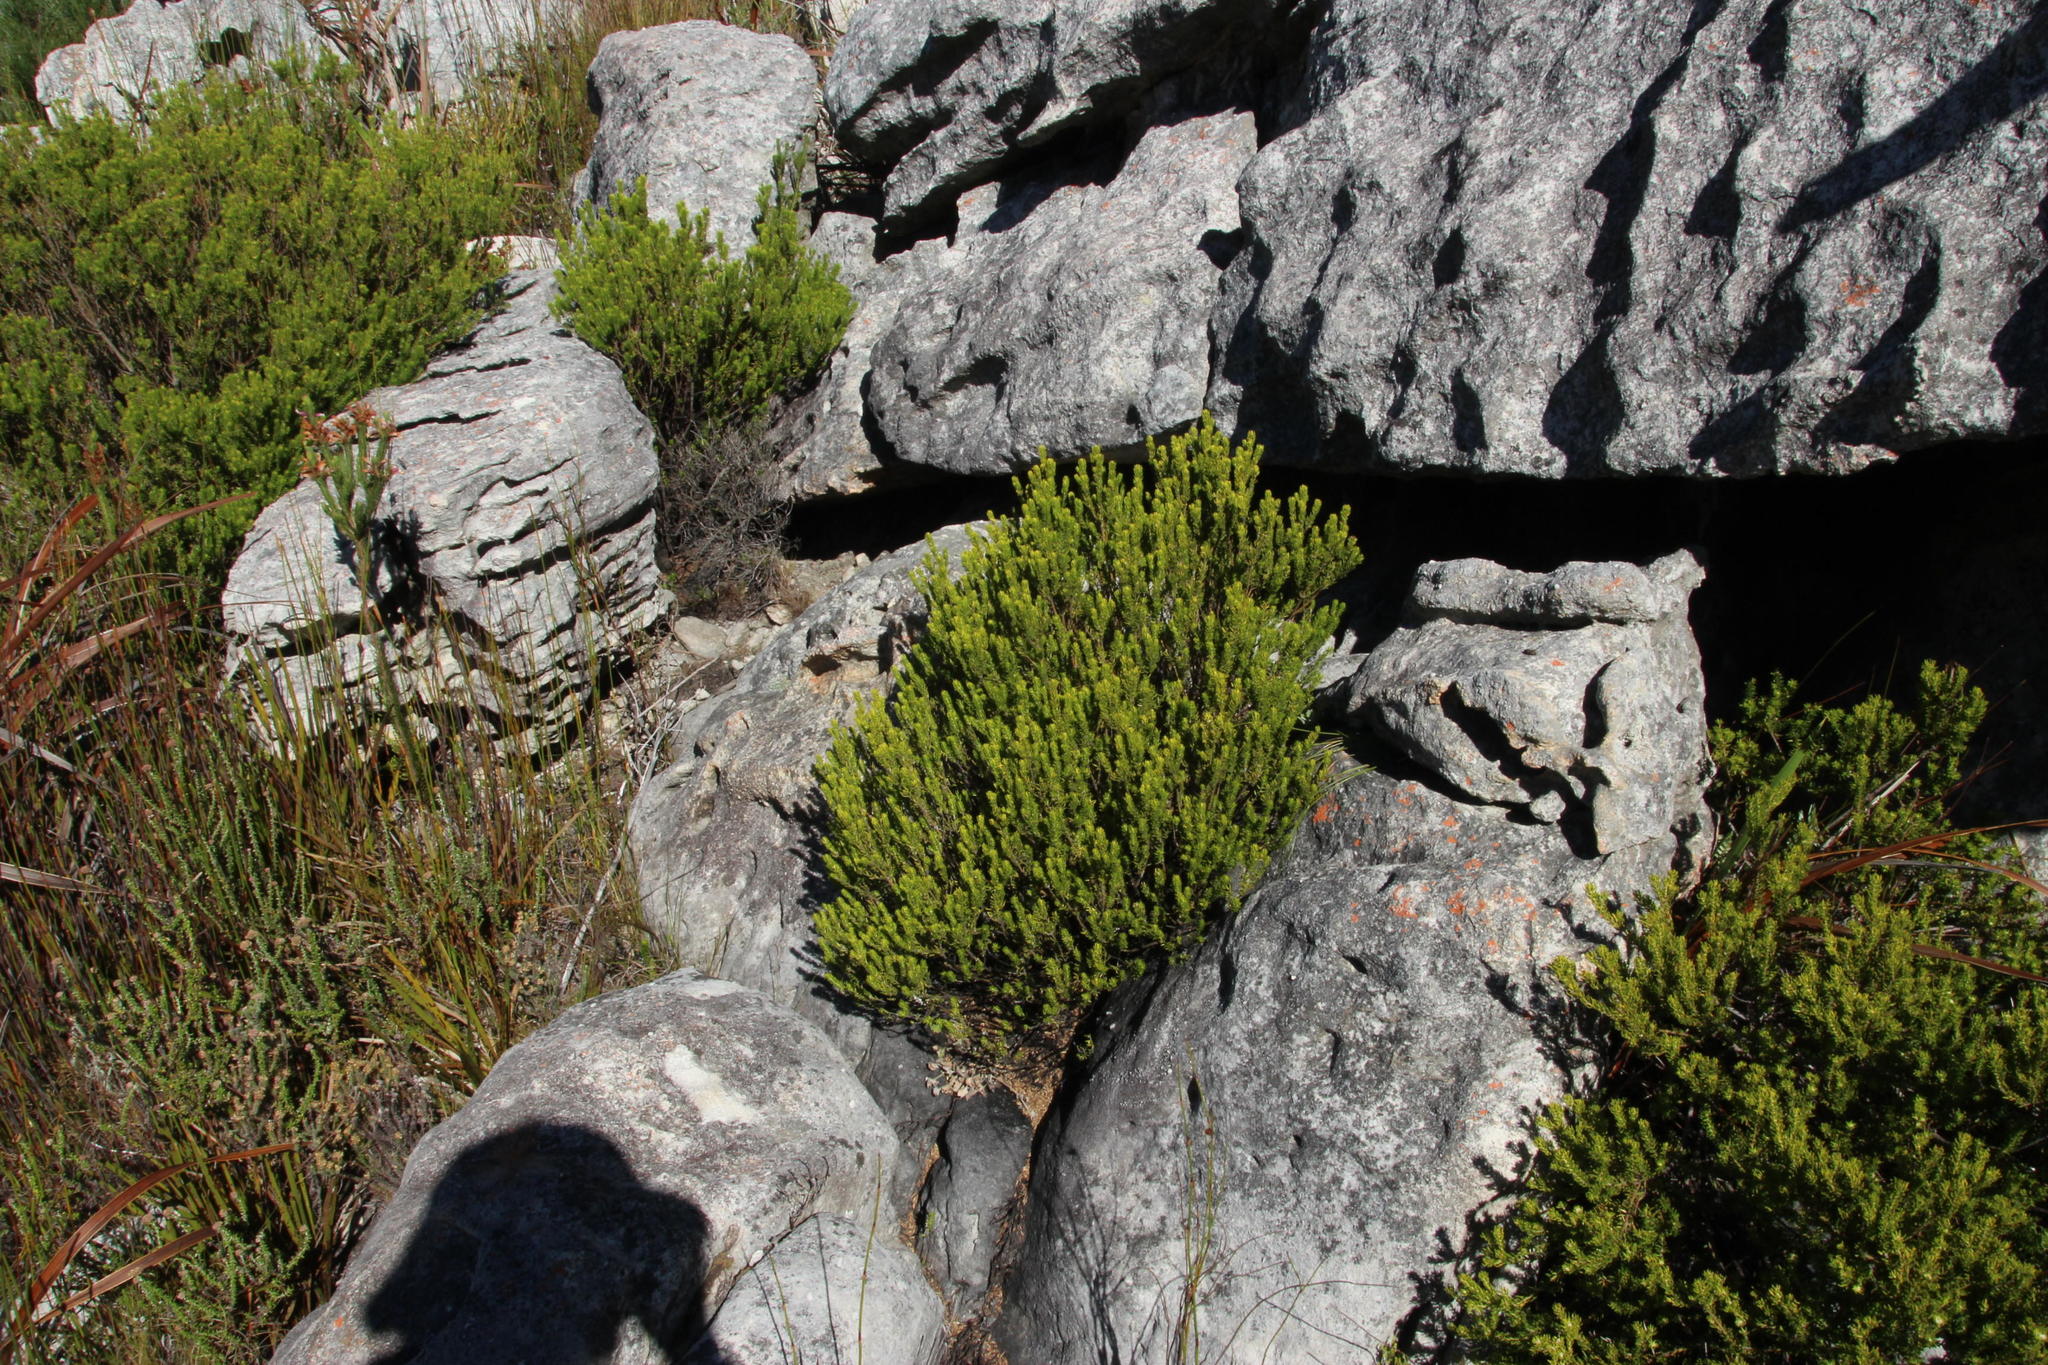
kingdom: Plantae
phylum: Tracheophyta
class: Magnoliopsida
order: Ericales
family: Ericaceae
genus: Erica
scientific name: Erica equisetifolia
